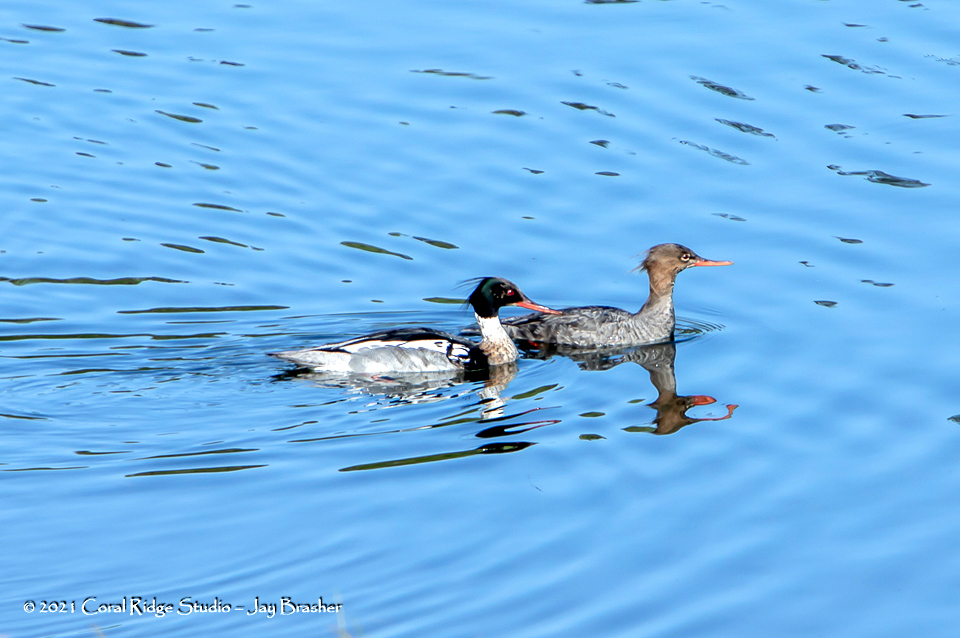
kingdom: Animalia
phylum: Chordata
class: Aves
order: Anseriformes
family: Anatidae
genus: Mergus
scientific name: Mergus serrator
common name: Red-breasted merganser
